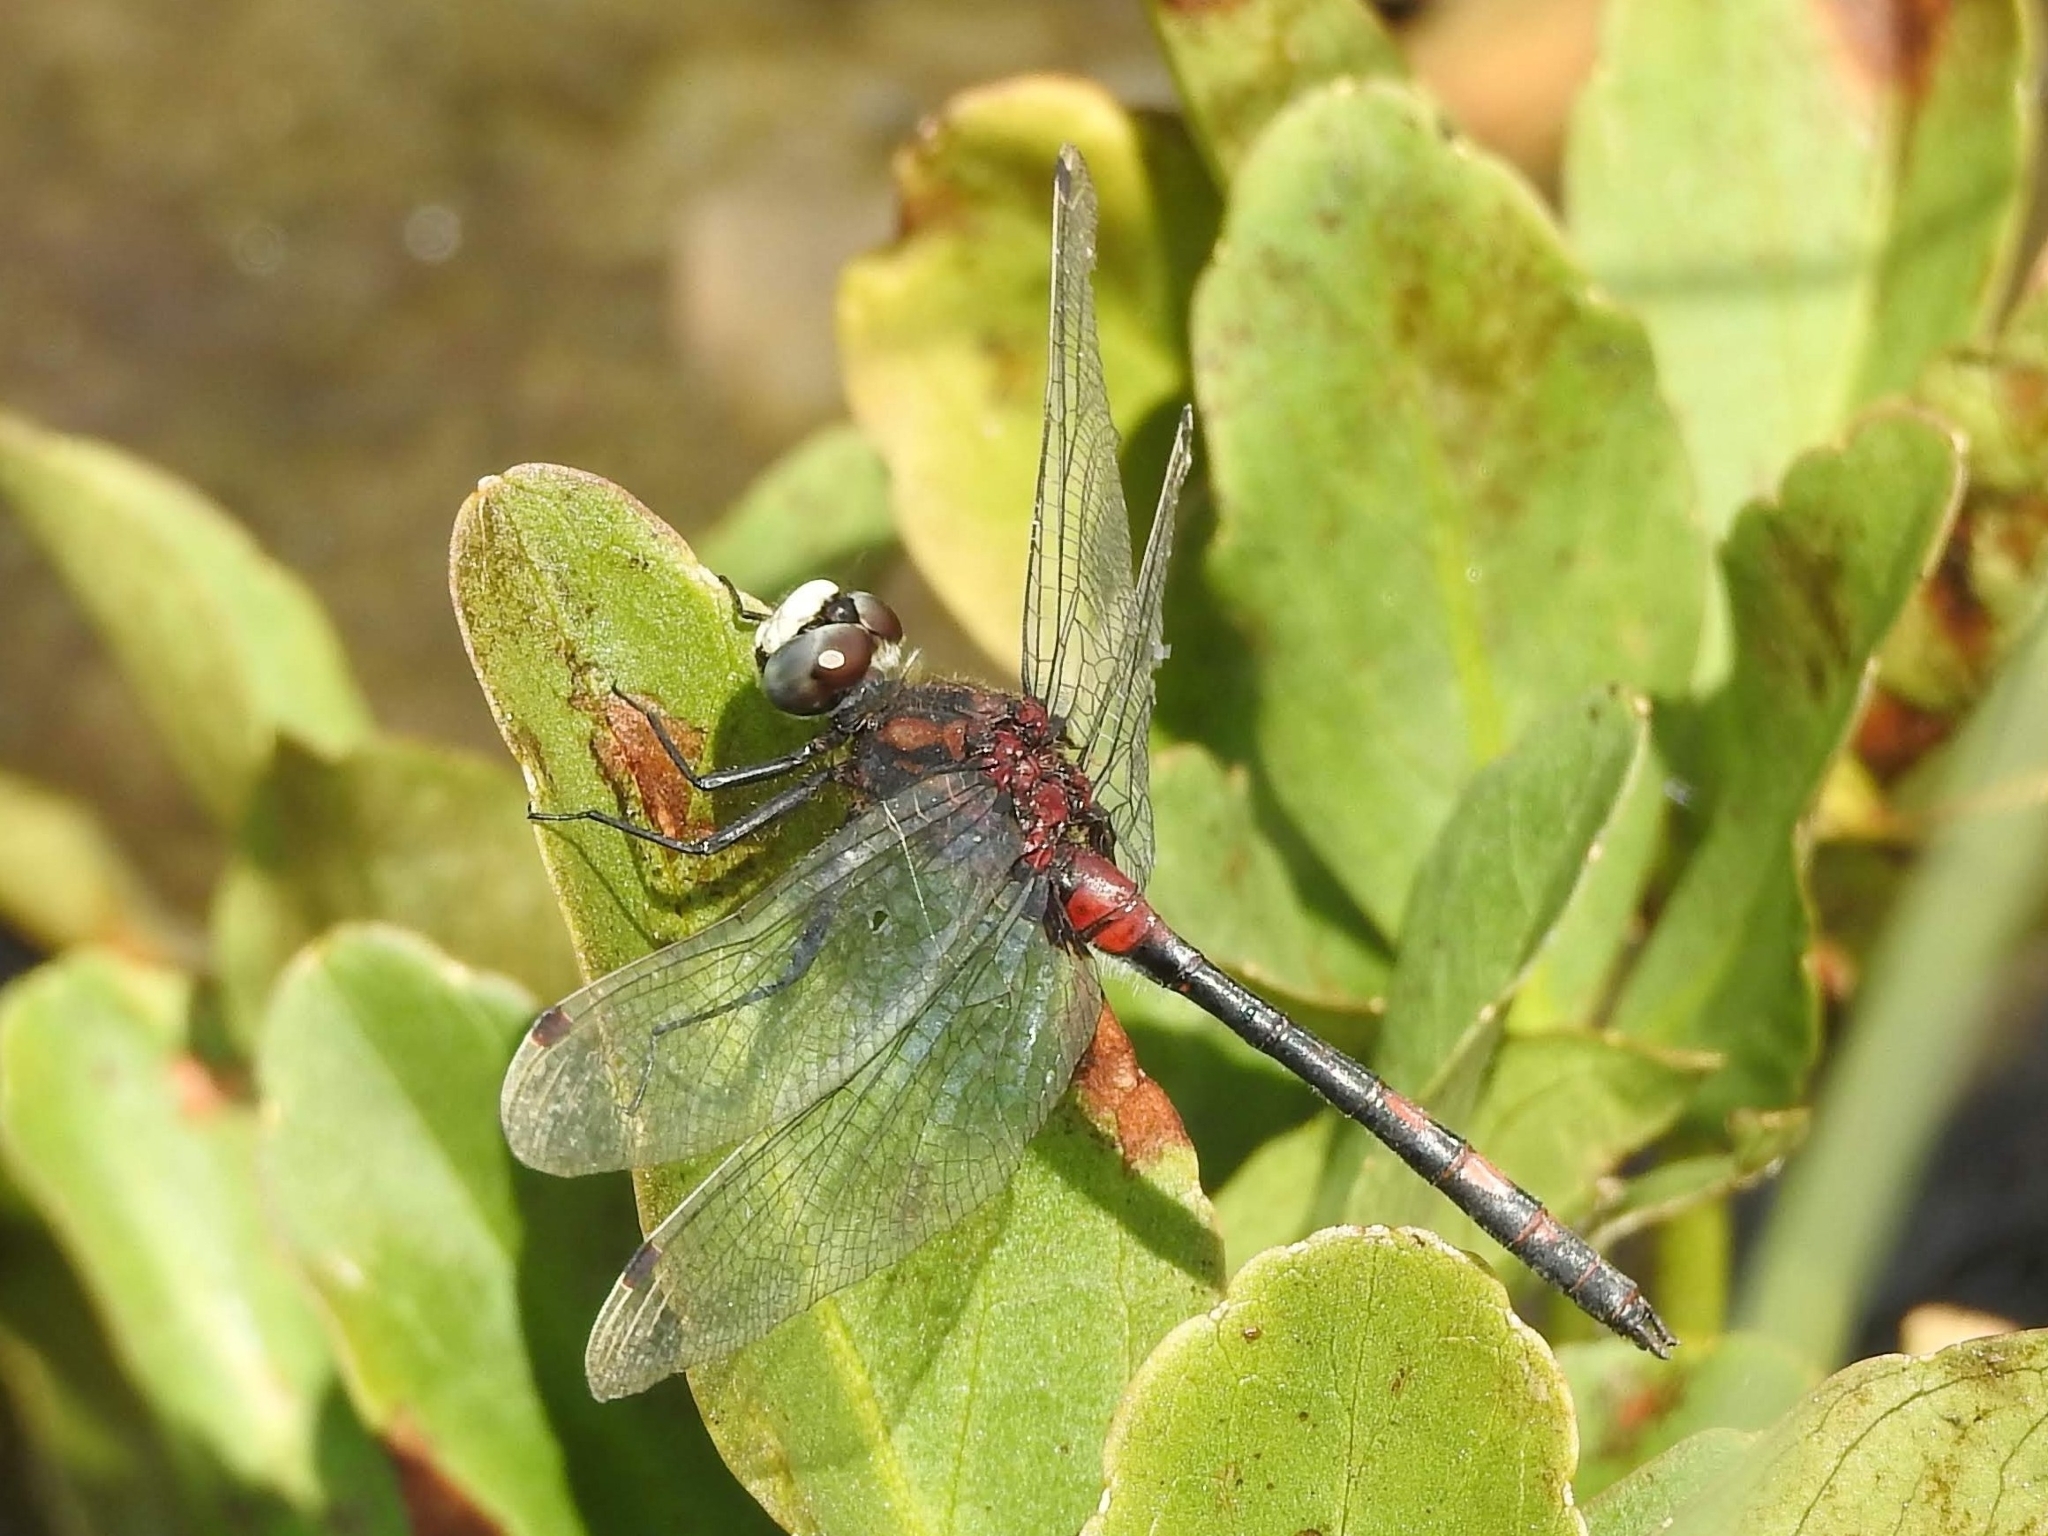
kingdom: Animalia
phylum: Arthropoda
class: Insecta
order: Odonata
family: Libellulidae
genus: Leucorrhinia
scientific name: Leucorrhinia dubia
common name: White-faced darter
